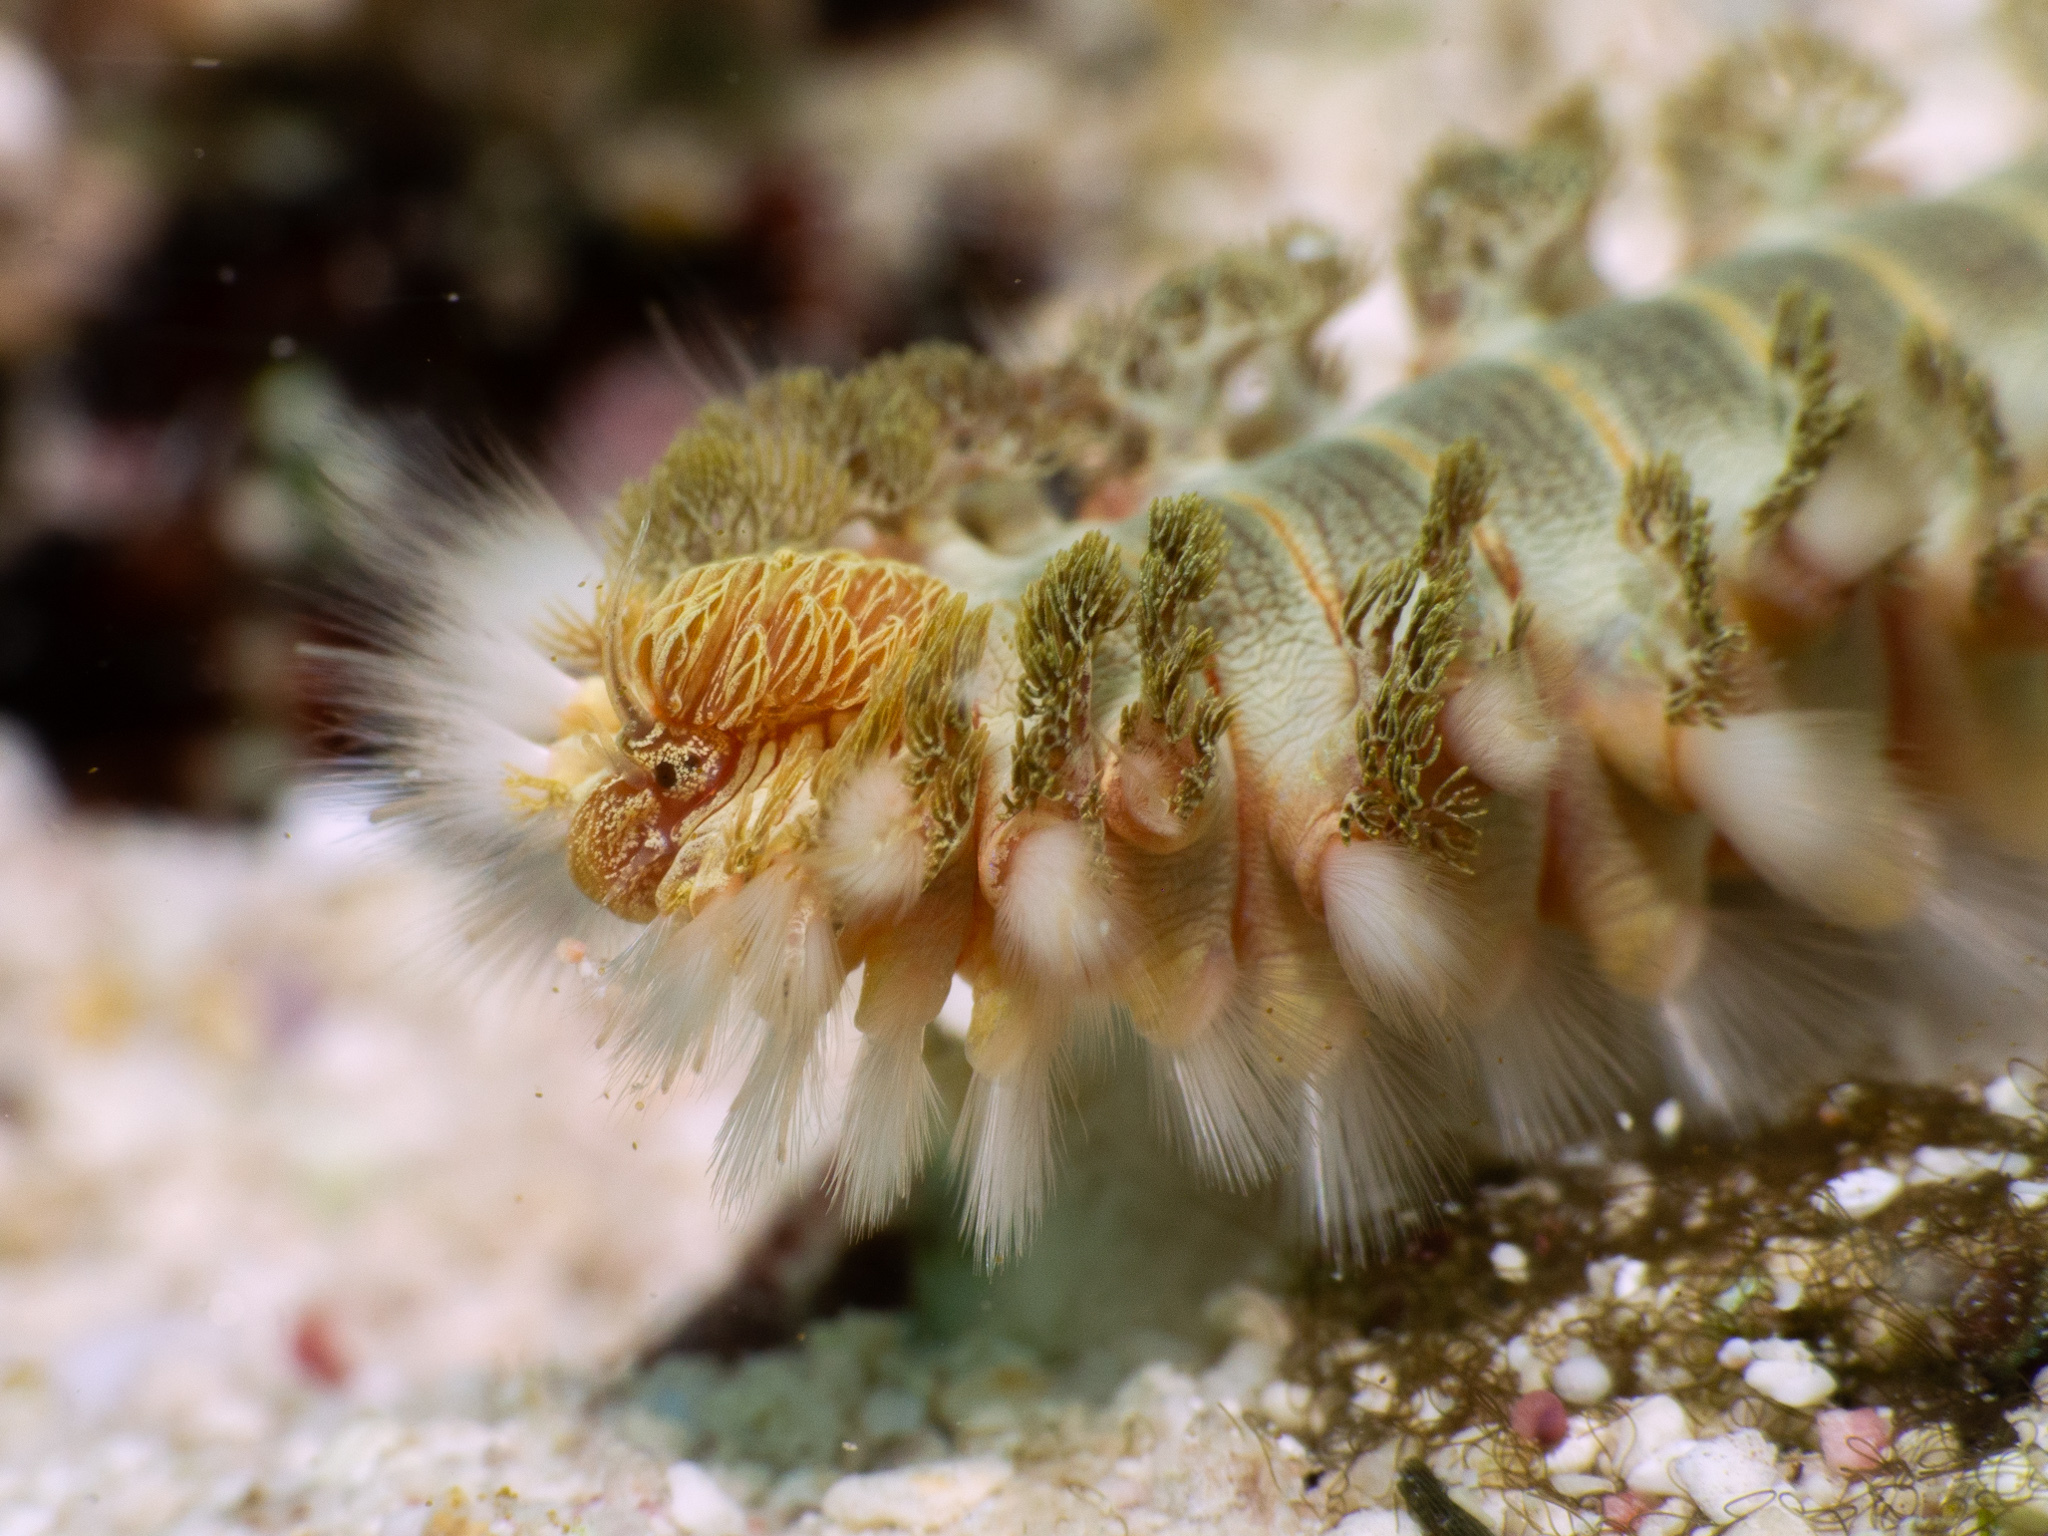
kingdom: Animalia
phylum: Annelida
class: Polychaeta
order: Amphinomida
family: Amphinomidae
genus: Hermodice
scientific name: Hermodice carunculata
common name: Bearded fireworm
